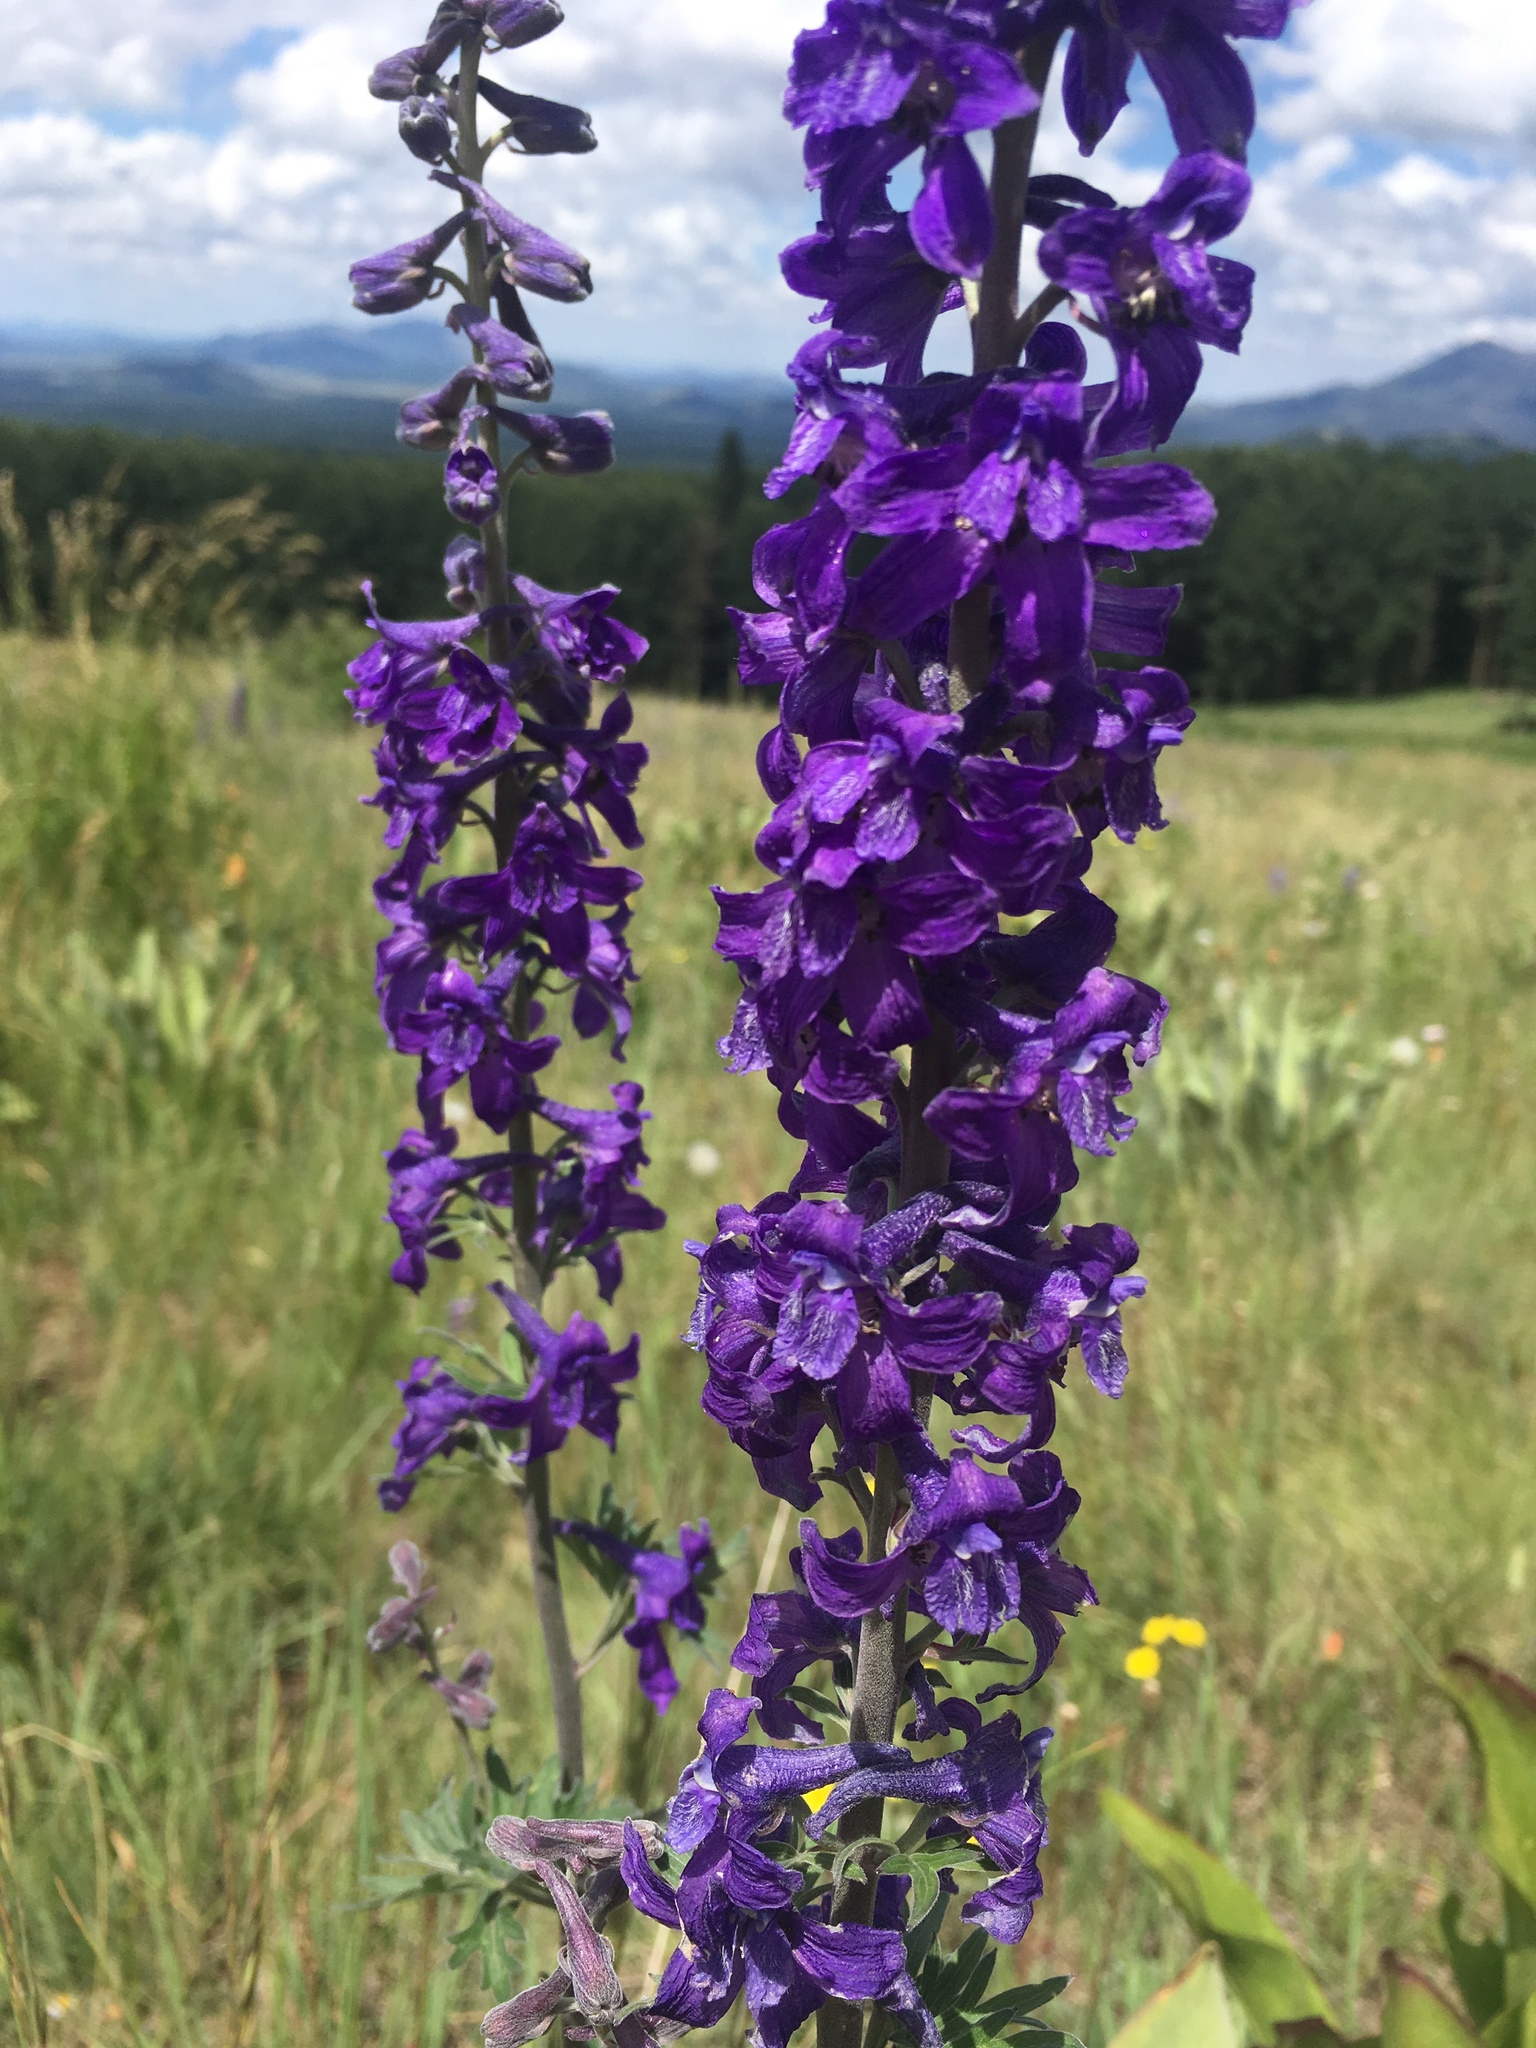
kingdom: Plantae
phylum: Tracheophyta
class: Magnoliopsida
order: Ranunculales
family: Ranunculaceae
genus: Delphinium
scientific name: Delphinium geraniifolium
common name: Mogollon larkspur
